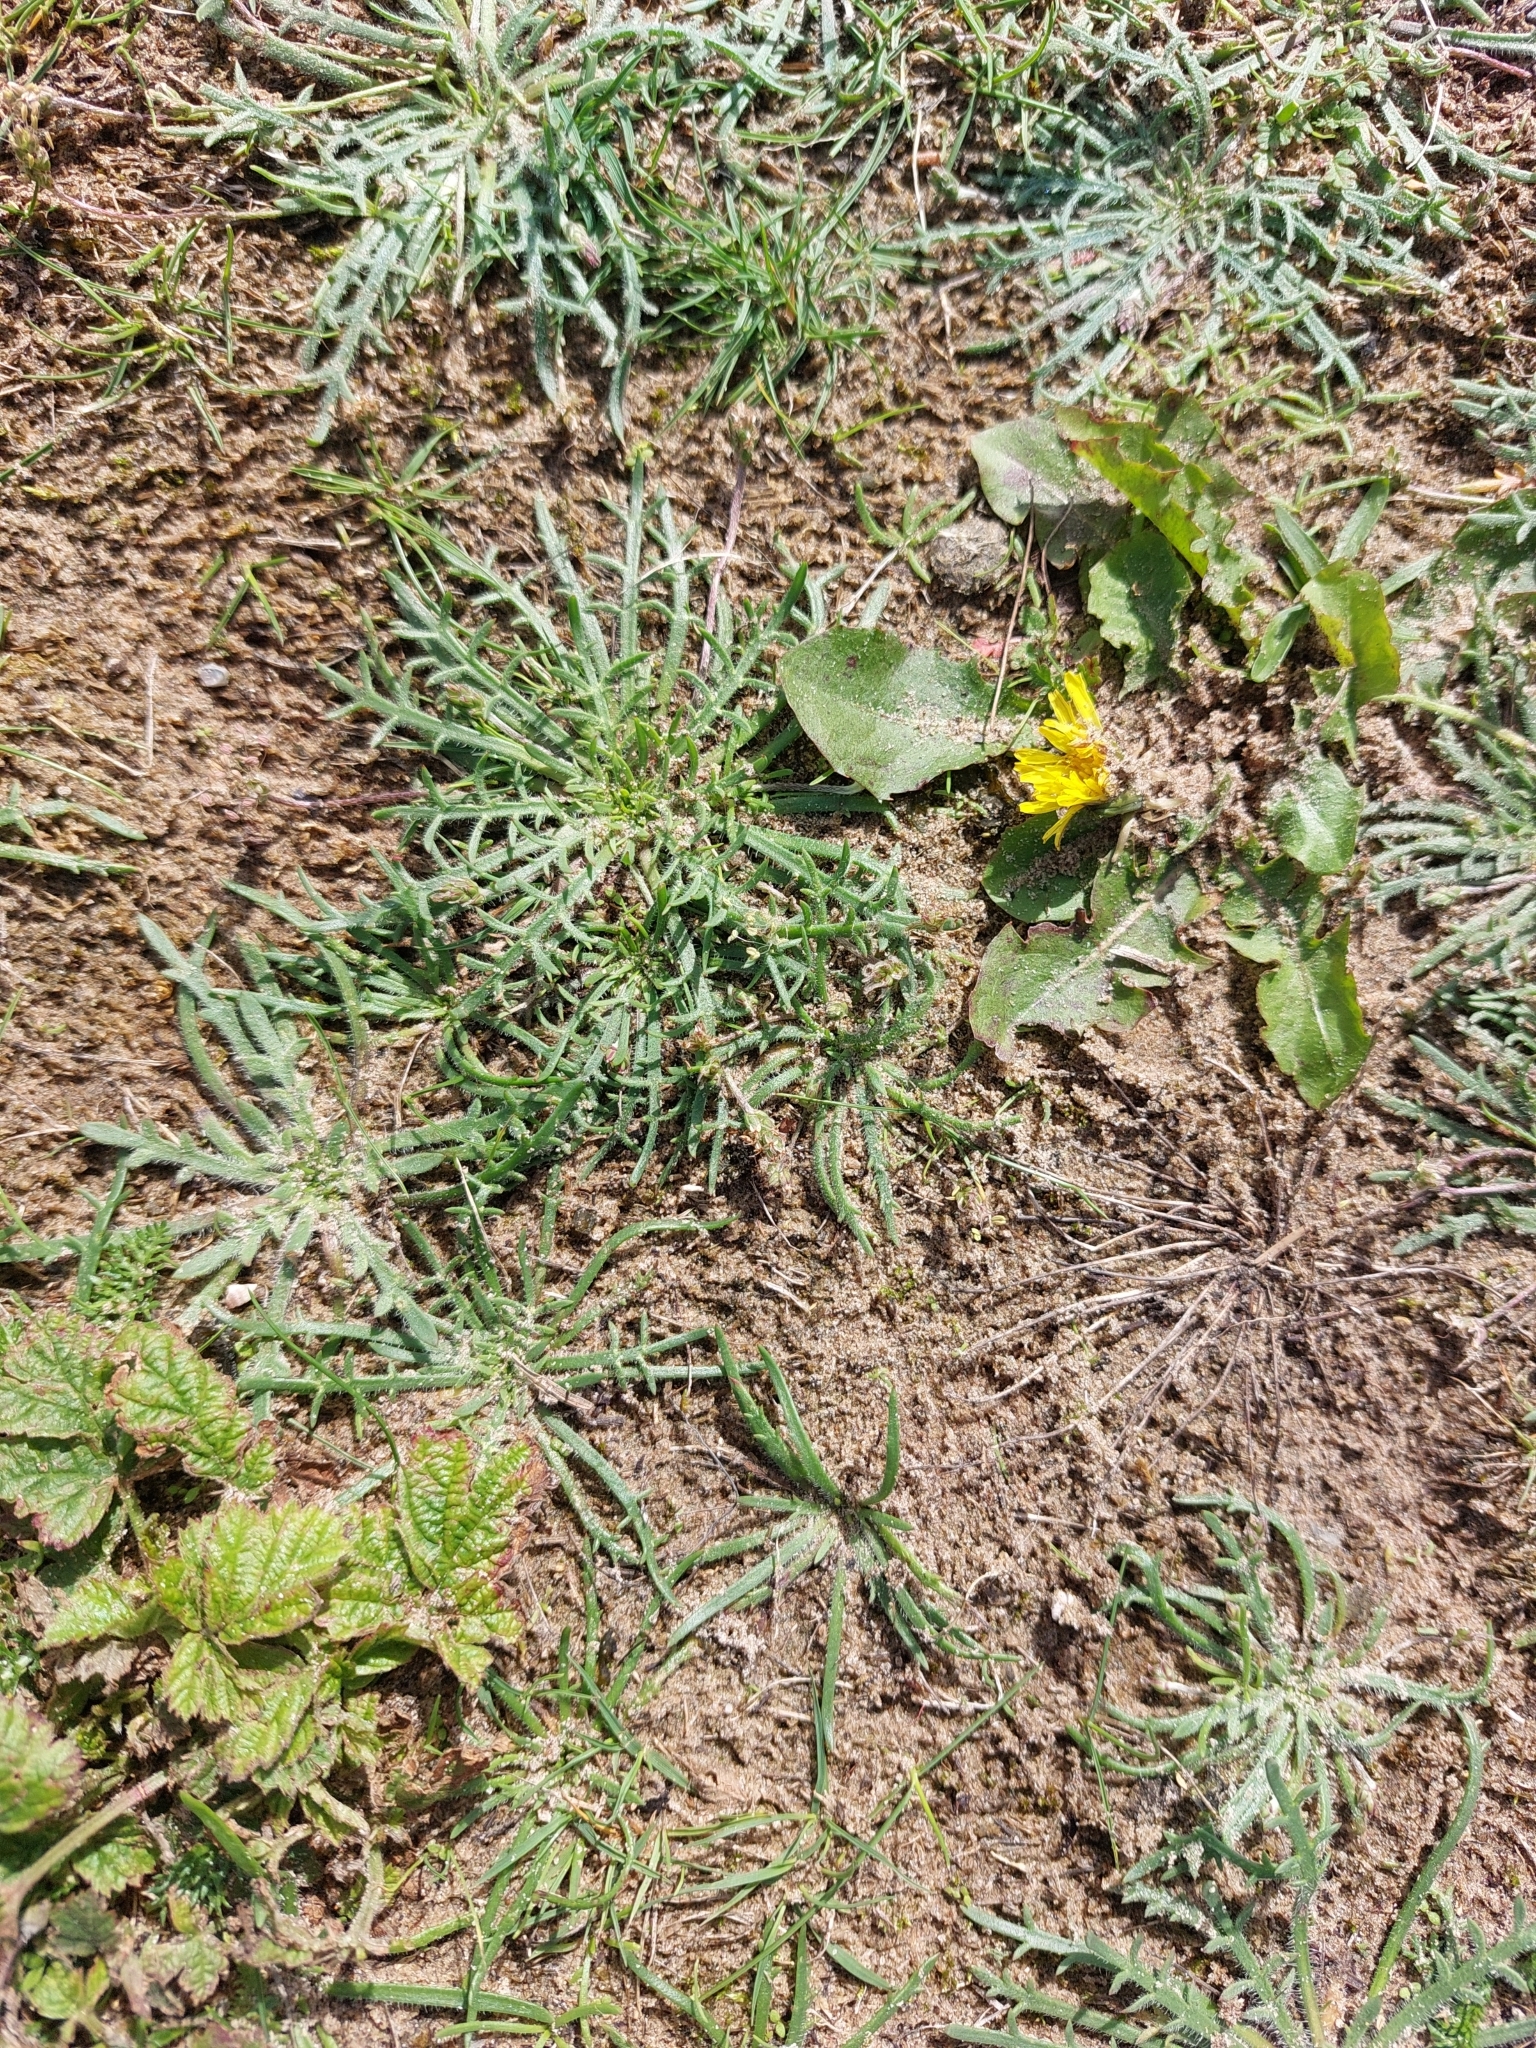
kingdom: Plantae
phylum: Tracheophyta
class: Magnoliopsida
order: Lamiales
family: Plantaginaceae
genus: Plantago
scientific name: Plantago coronopus
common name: Buck's-horn plantain
